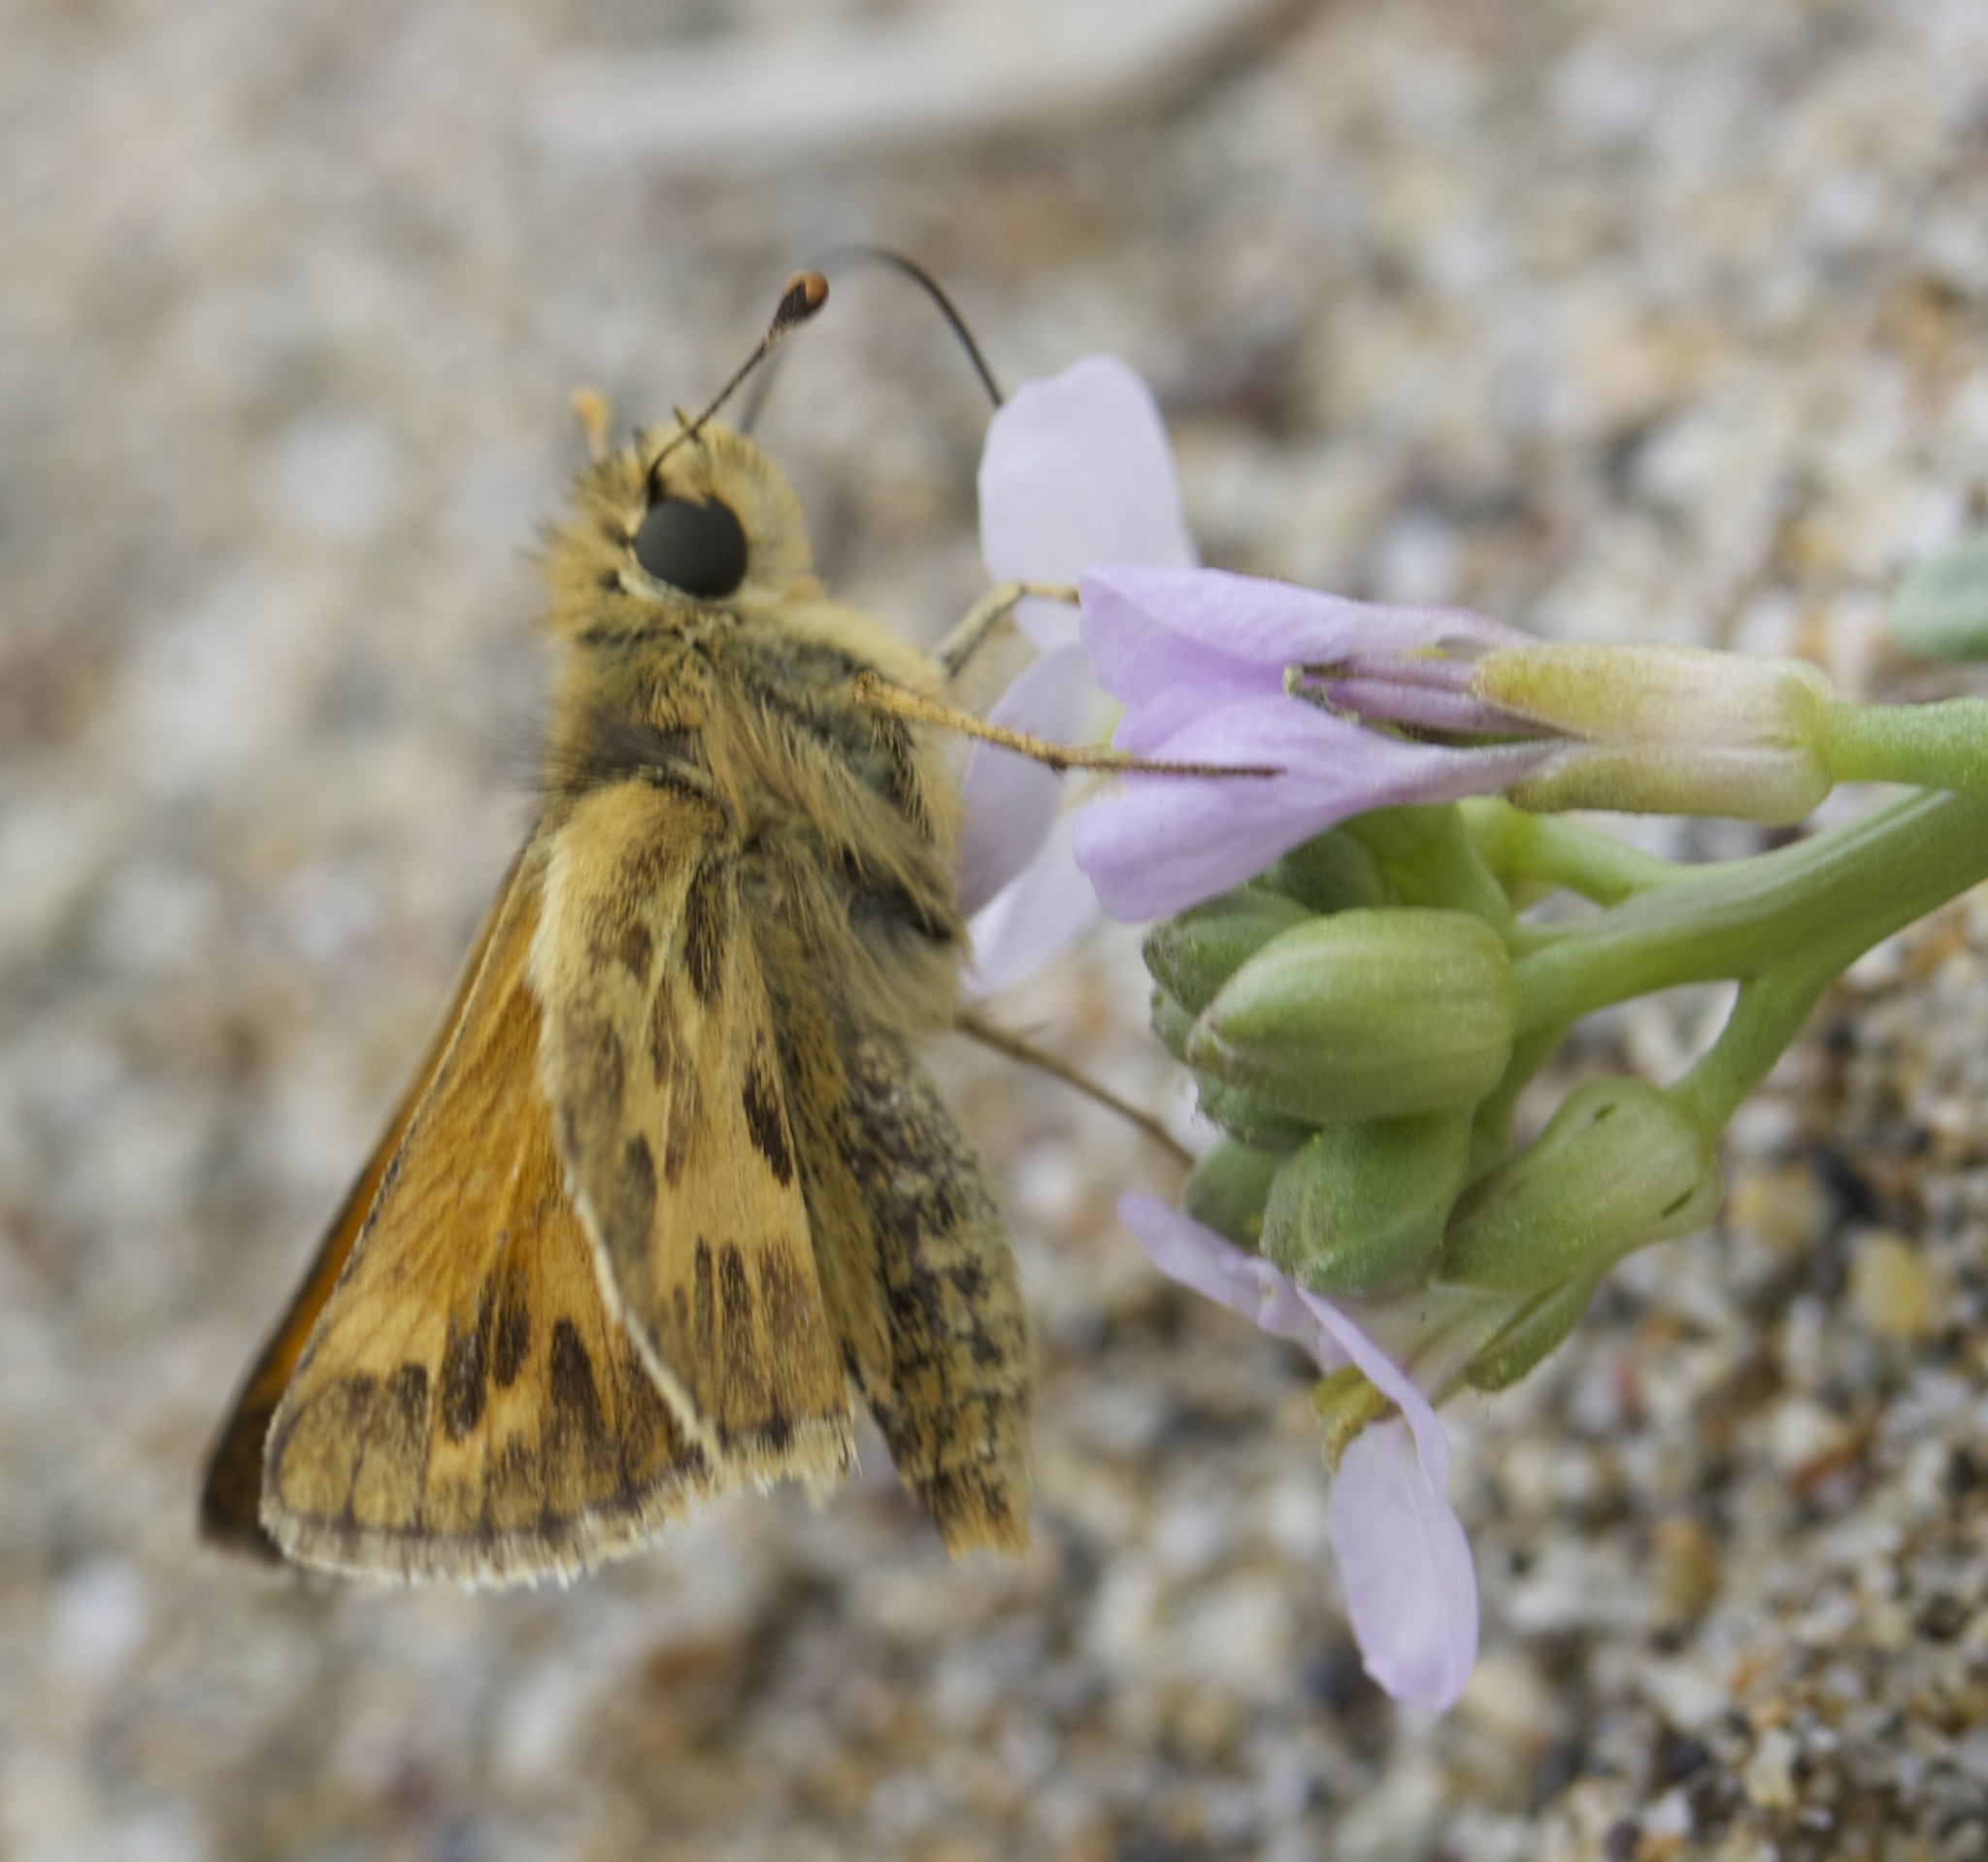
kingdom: Animalia
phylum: Arthropoda
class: Insecta
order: Lepidoptera
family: Hesperiidae
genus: Polites
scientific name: Polites sabuleti
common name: Sandhill skipper
